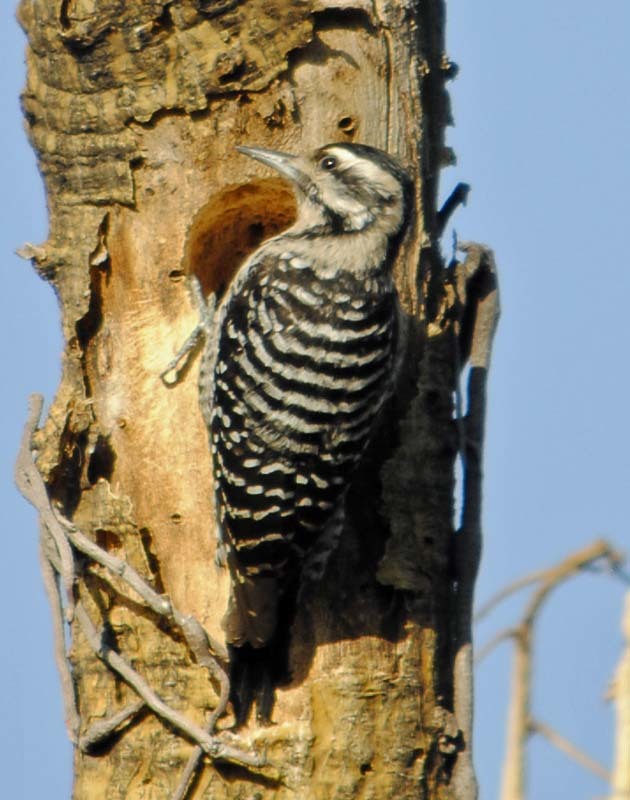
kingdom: Animalia
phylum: Chordata
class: Aves
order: Piciformes
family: Picidae
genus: Dryobates
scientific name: Dryobates scalaris
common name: Ladder-backed woodpecker
